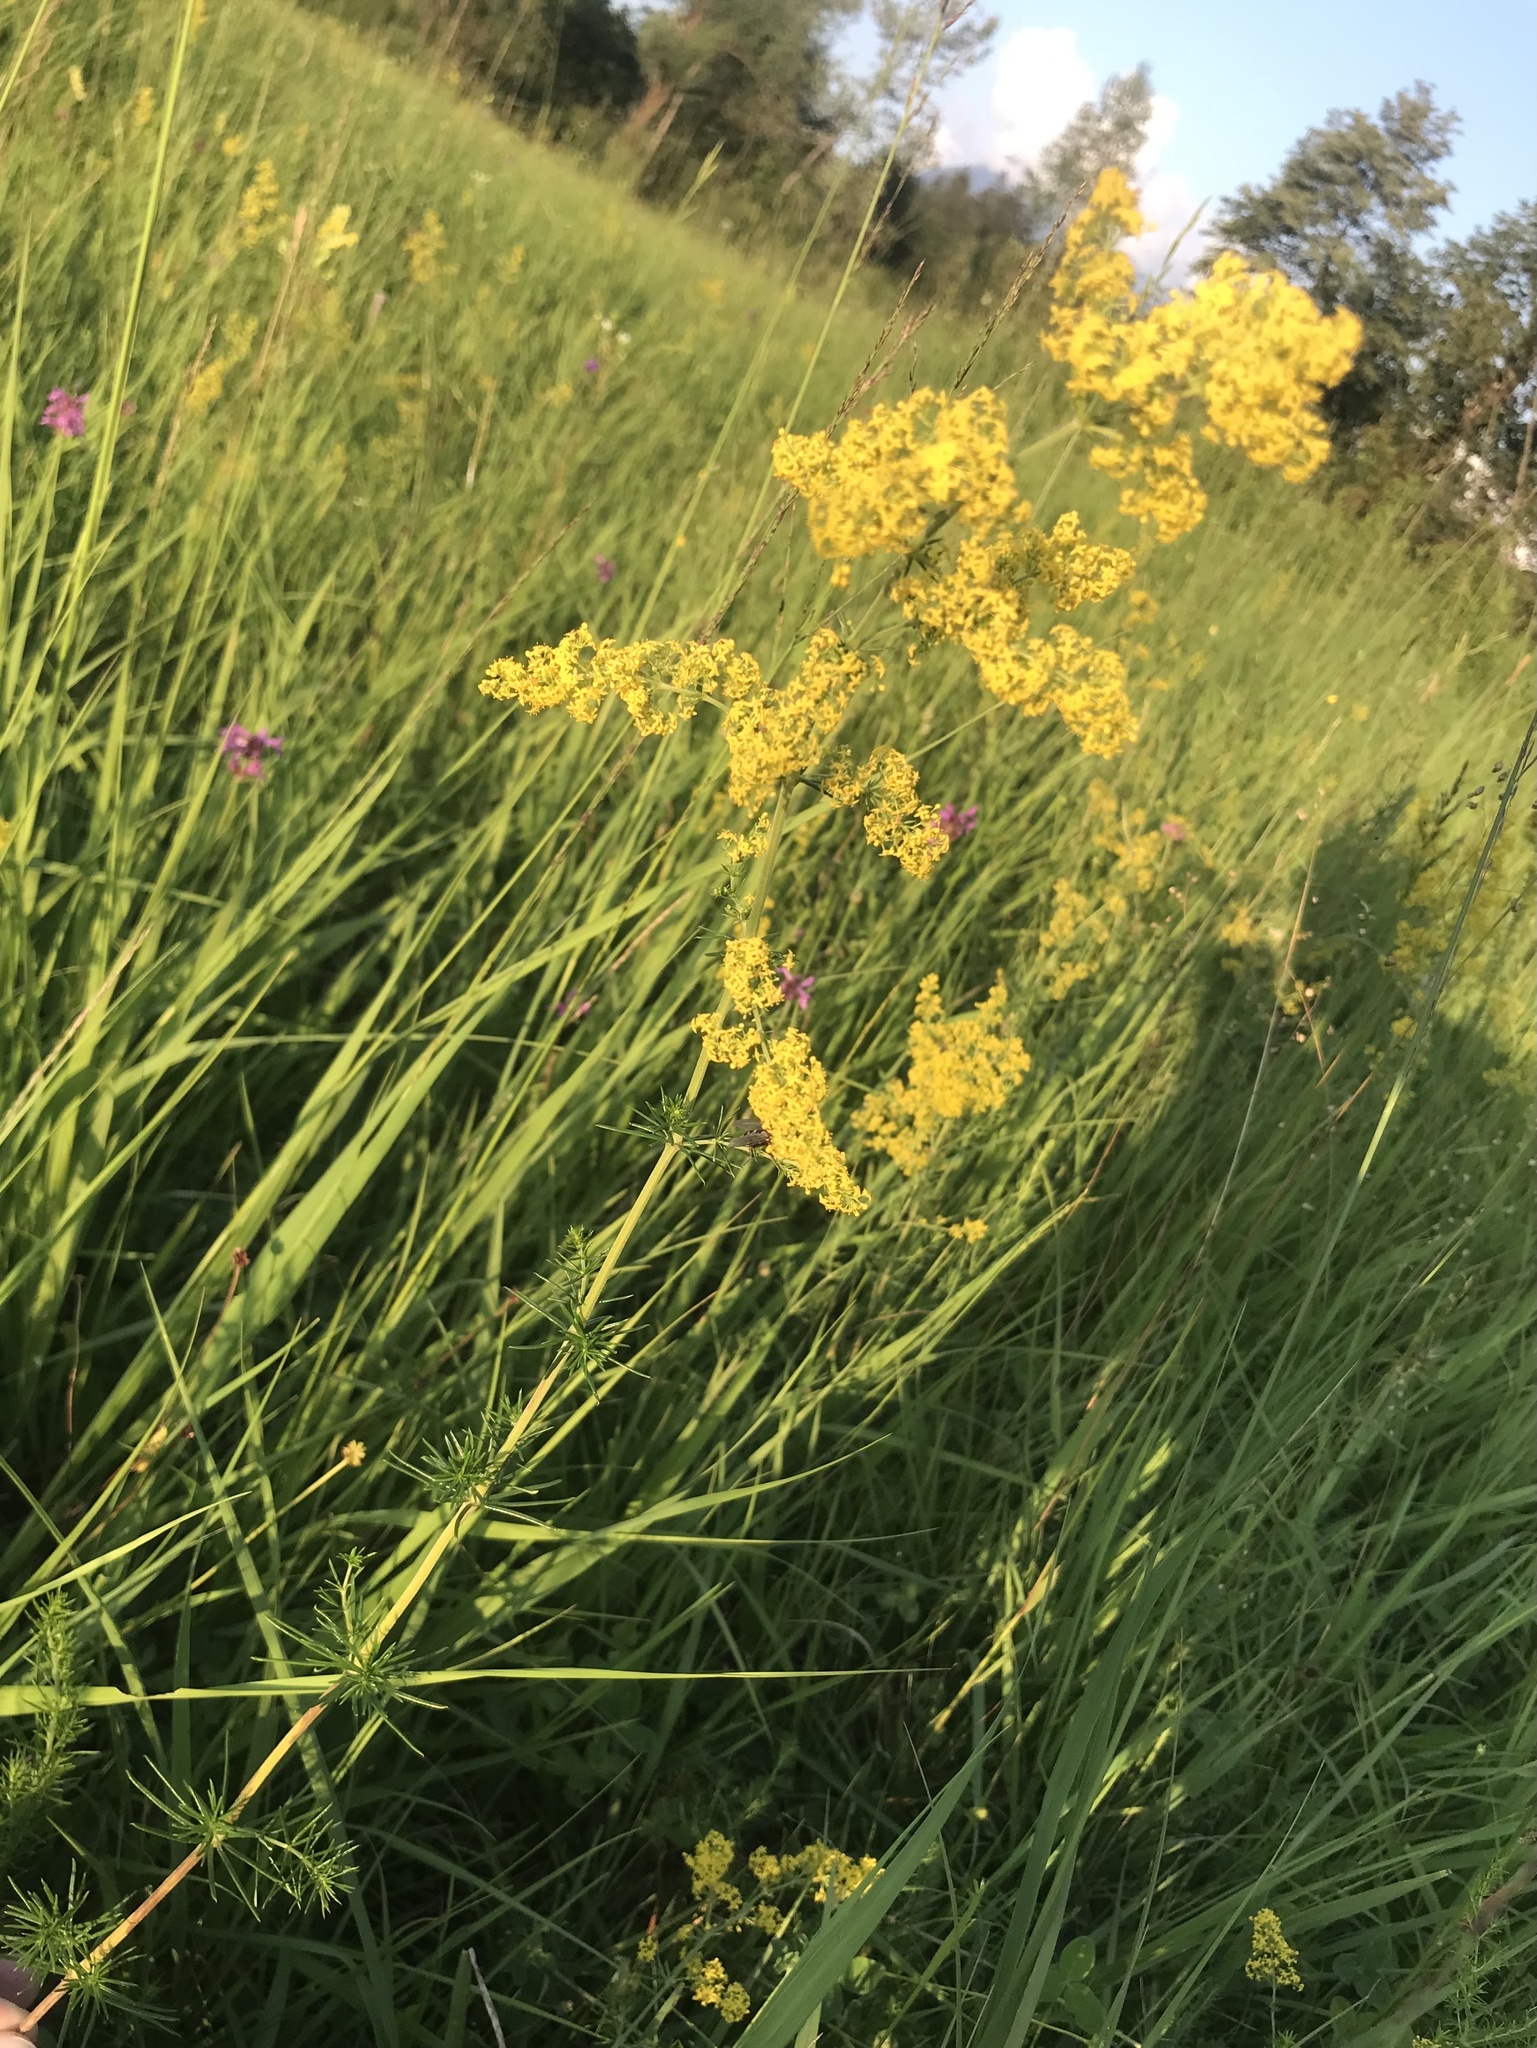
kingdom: Plantae
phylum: Tracheophyta
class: Magnoliopsida
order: Gentianales
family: Rubiaceae
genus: Galium
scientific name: Galium verum
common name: Lady's bedstraw
